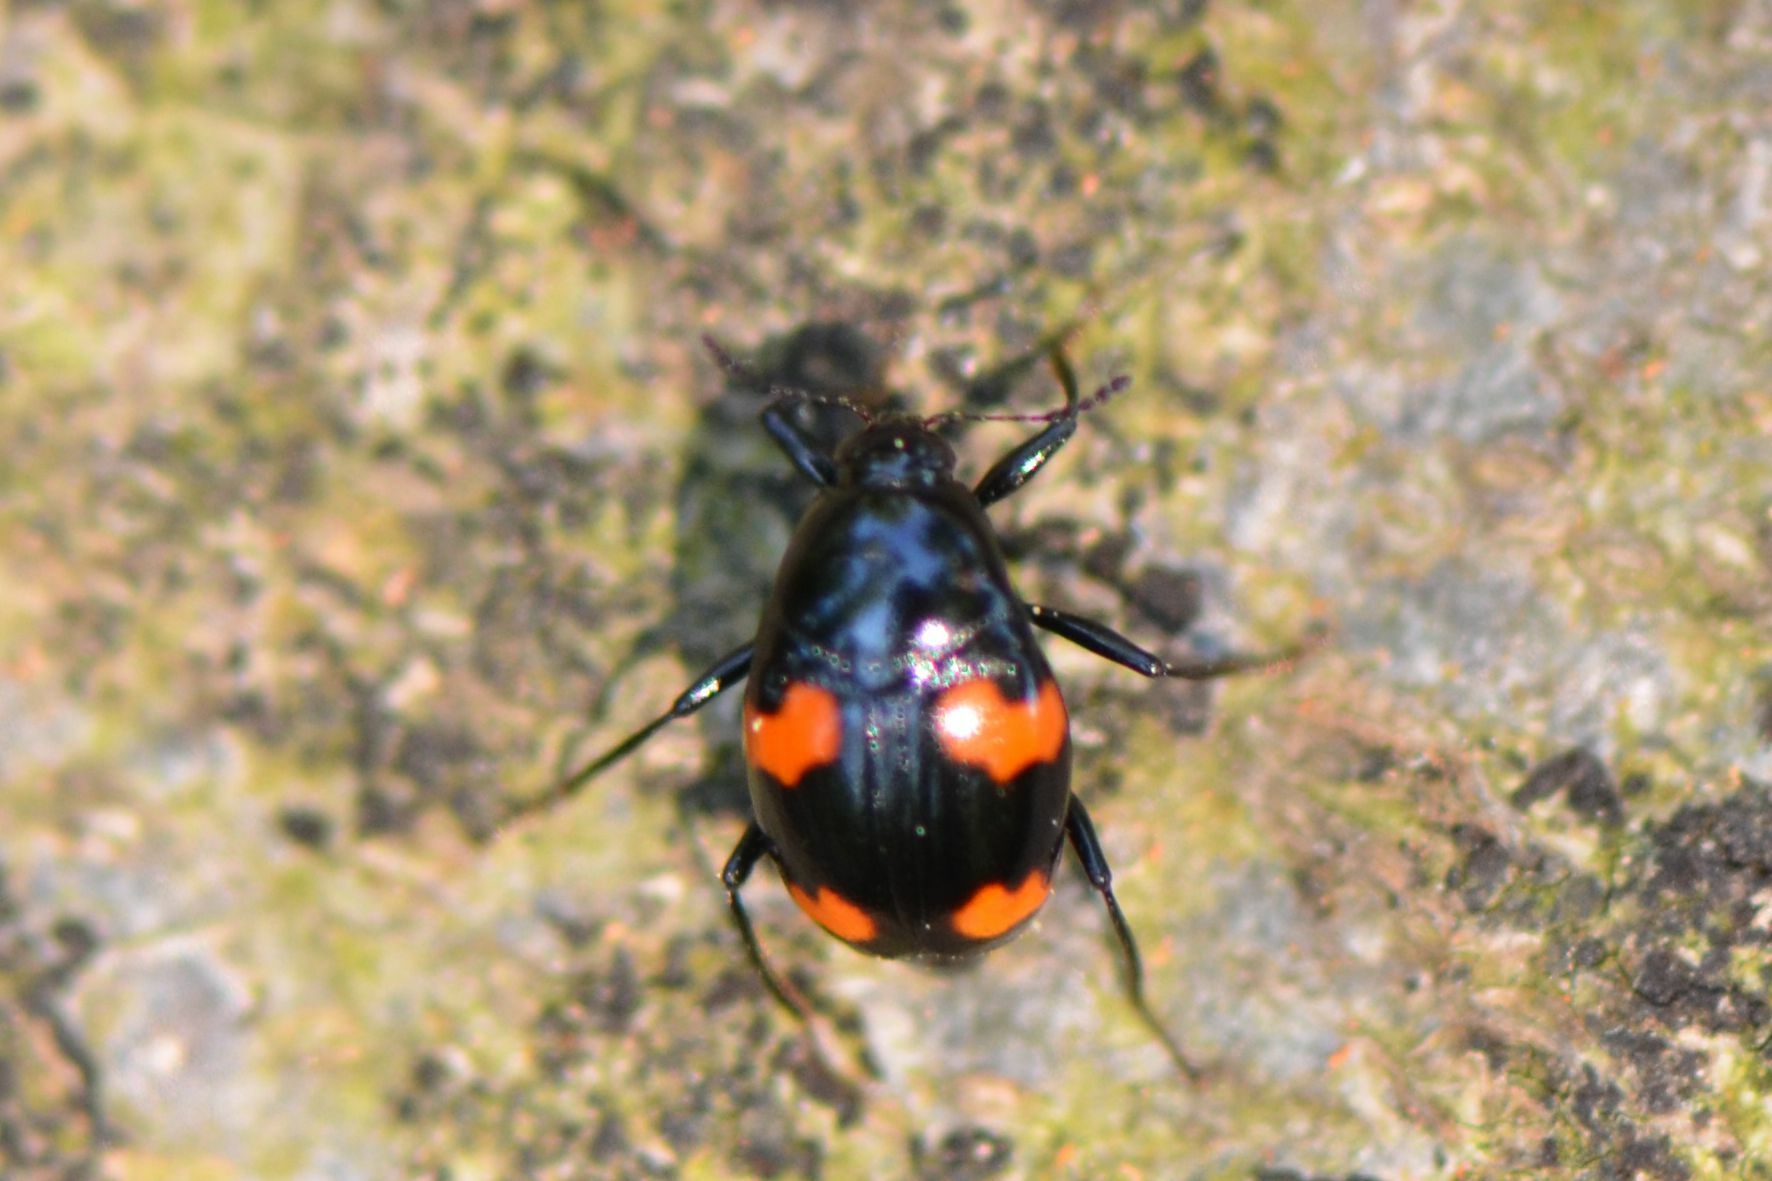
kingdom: Animalia
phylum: Arthropoda
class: Insecta
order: Coleoptera
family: Staphylinidae
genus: Scaphidium
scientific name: Scaphidium quadrimaculatum
